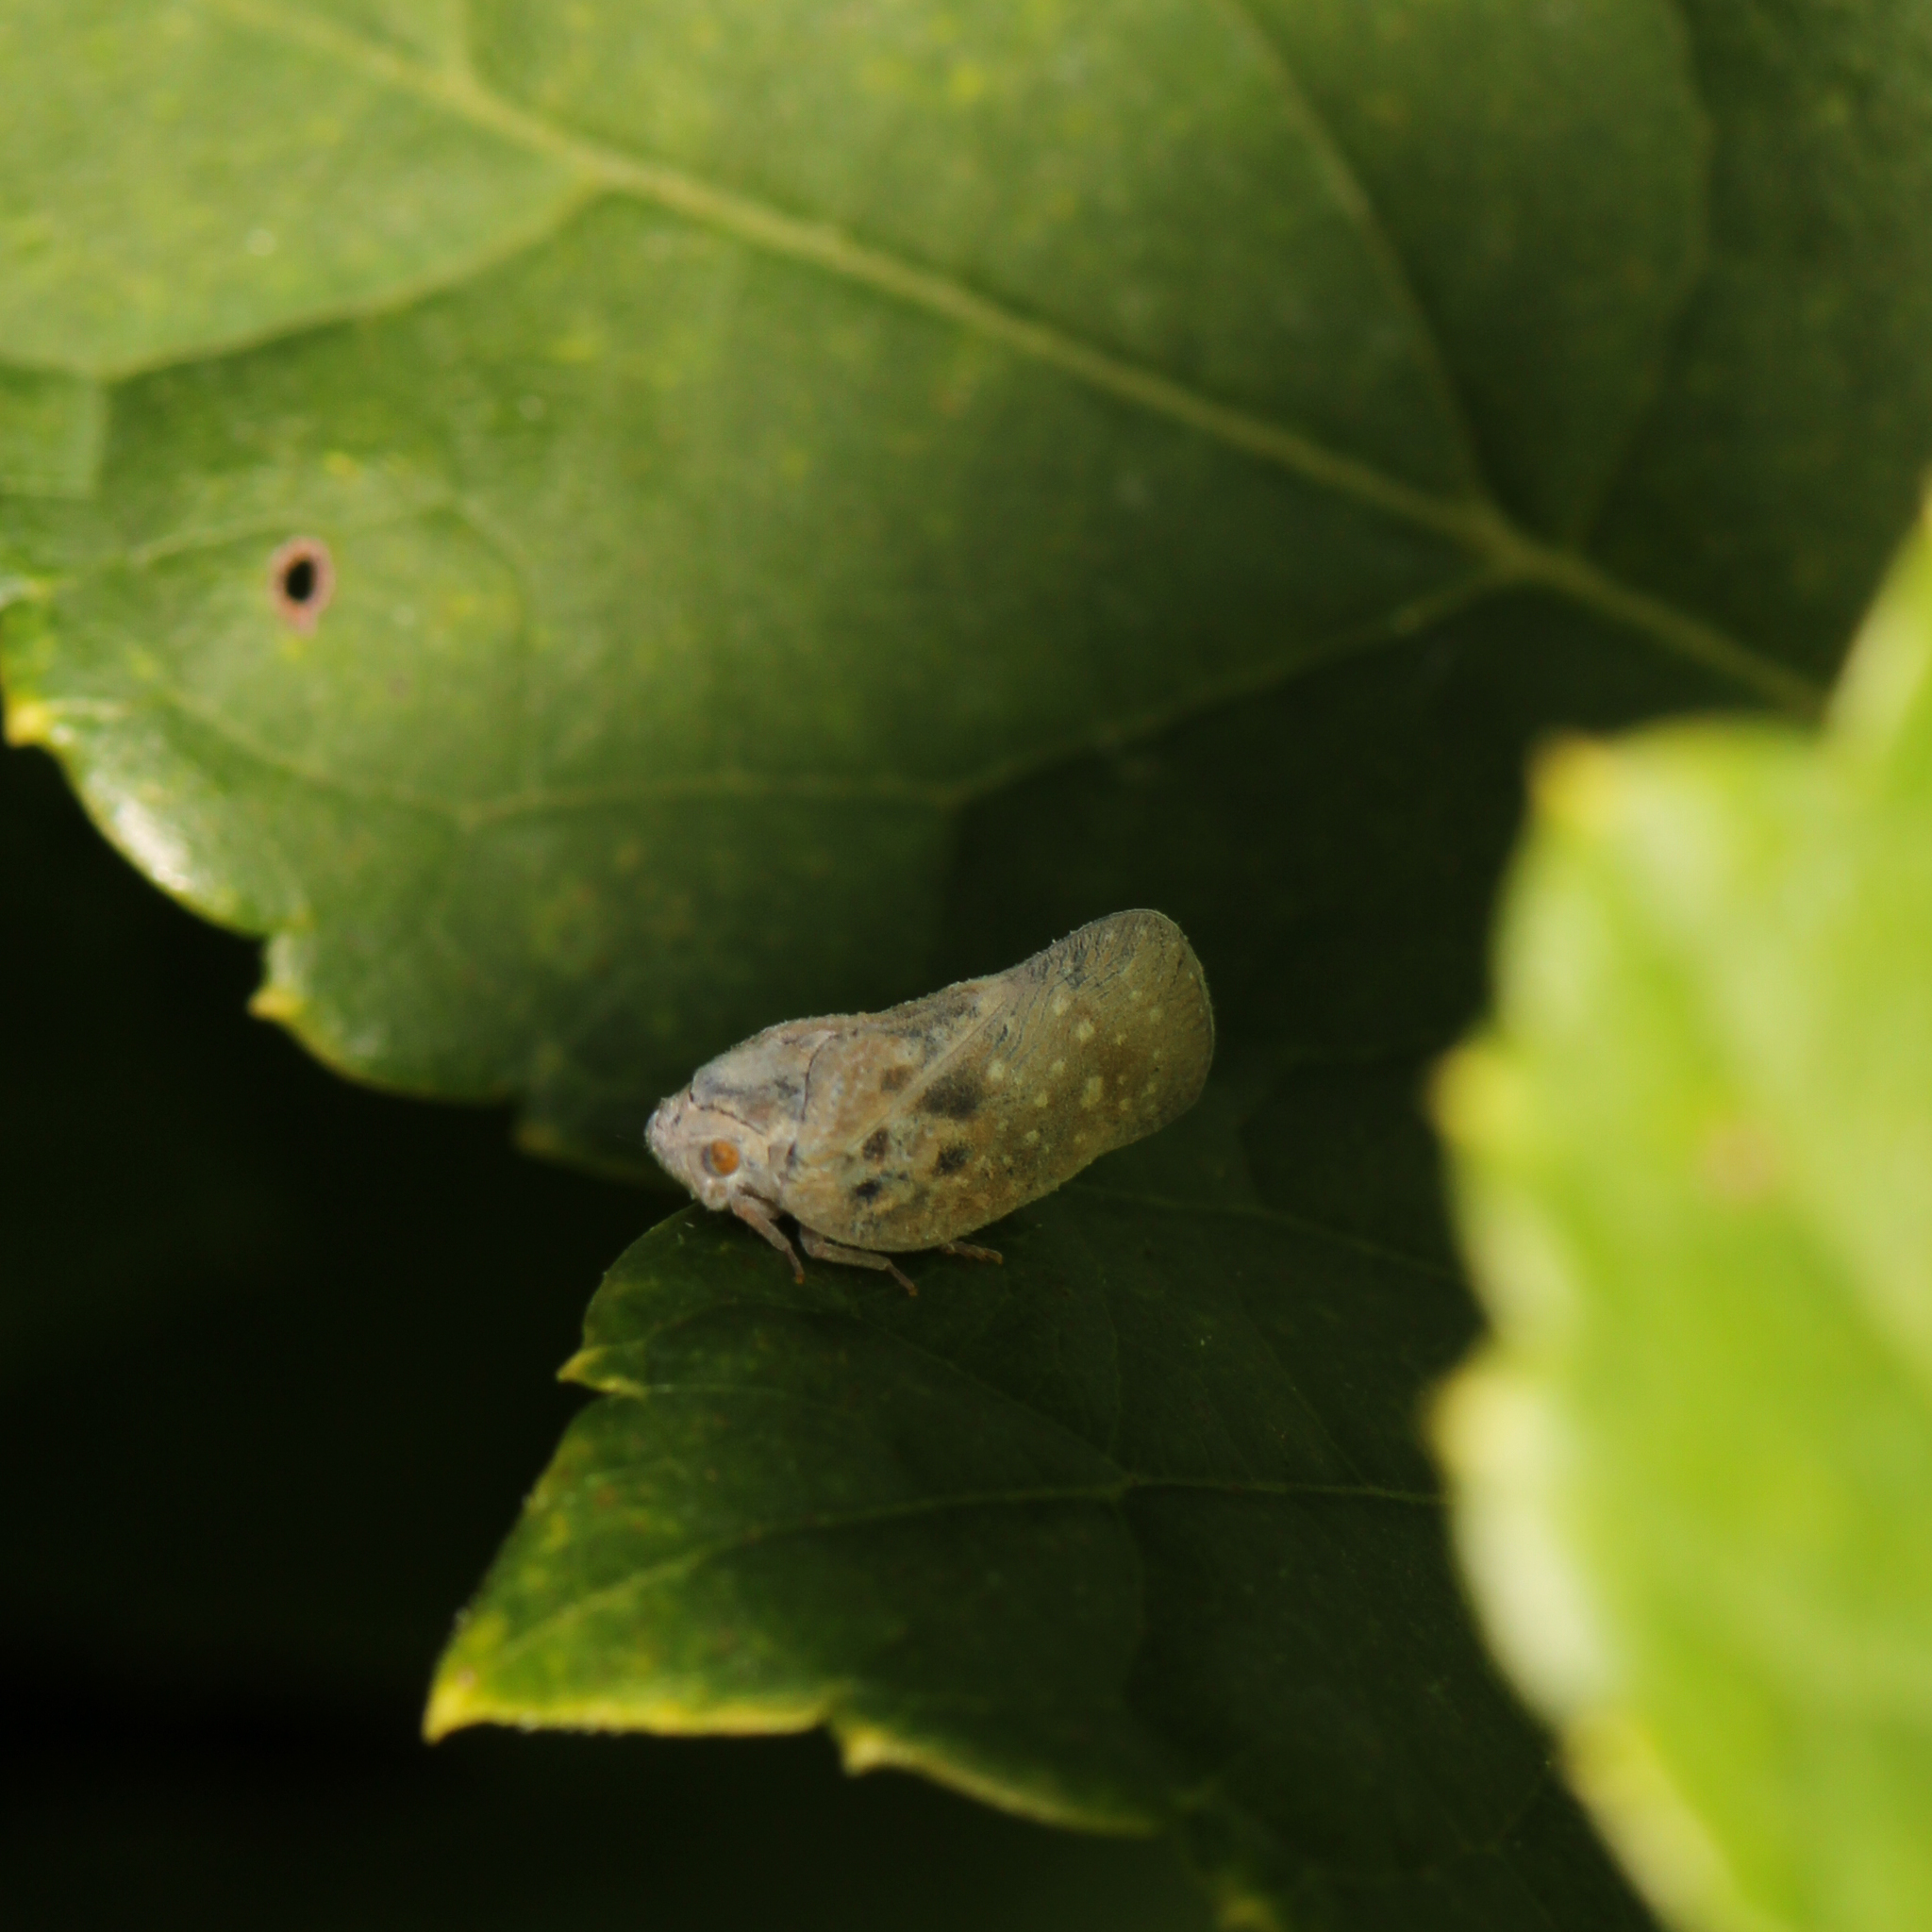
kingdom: Animalia
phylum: Arthropoda
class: Insecta
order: Hemiptera
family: Flatidae
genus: Metcalfa
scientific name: Metcalfa pruinosa
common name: Citrus flatid planthopper
